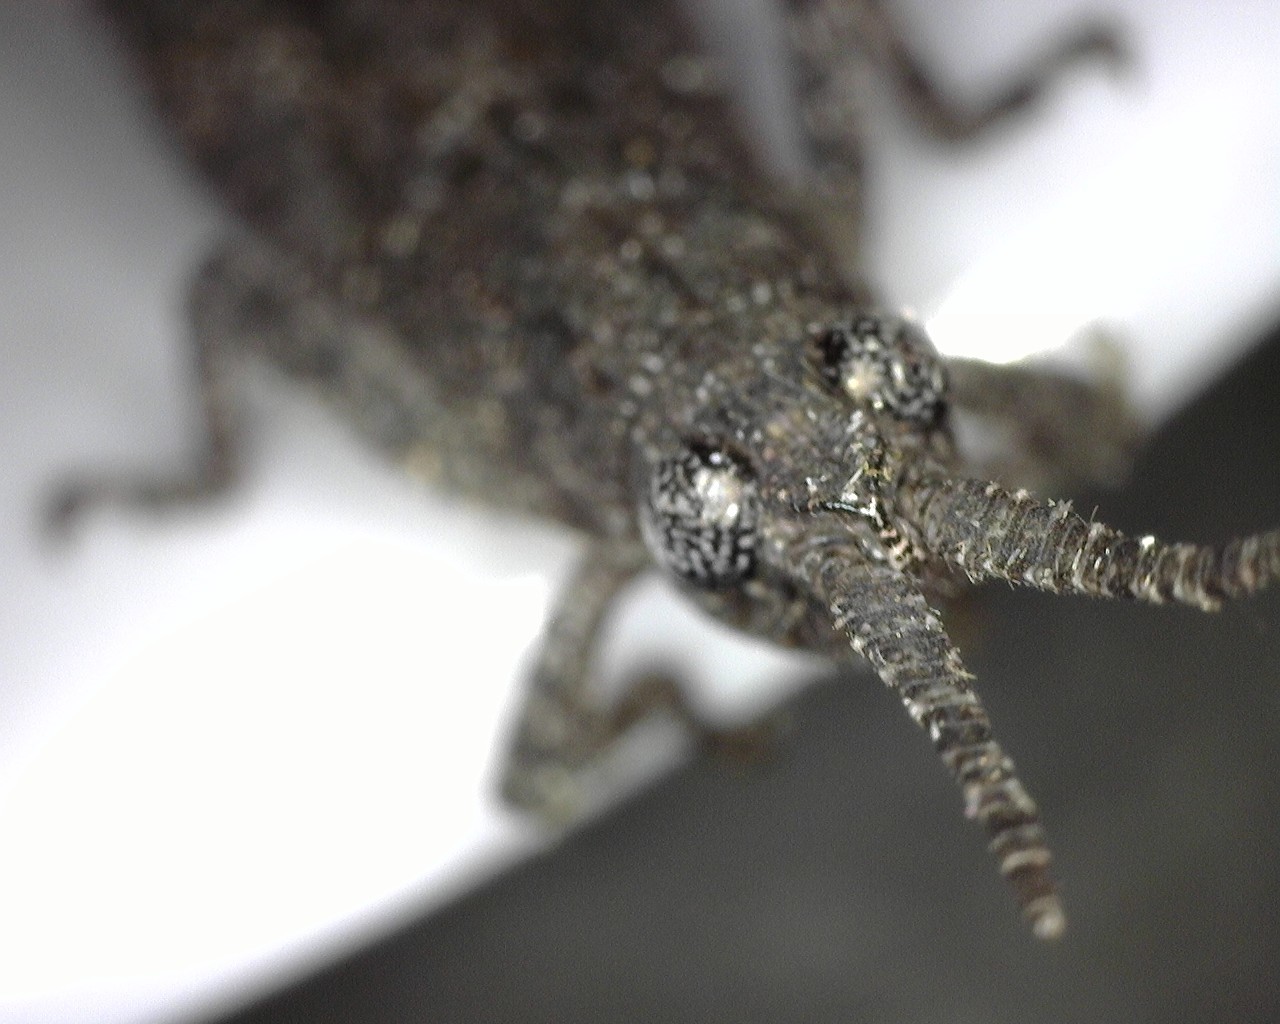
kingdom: Animalia
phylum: Arthropoda
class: Insecta
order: Orthoptera
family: Acrididae
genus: Coryphistes
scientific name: Coryphistes ruricola
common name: Bark-mimicking grasshopper
